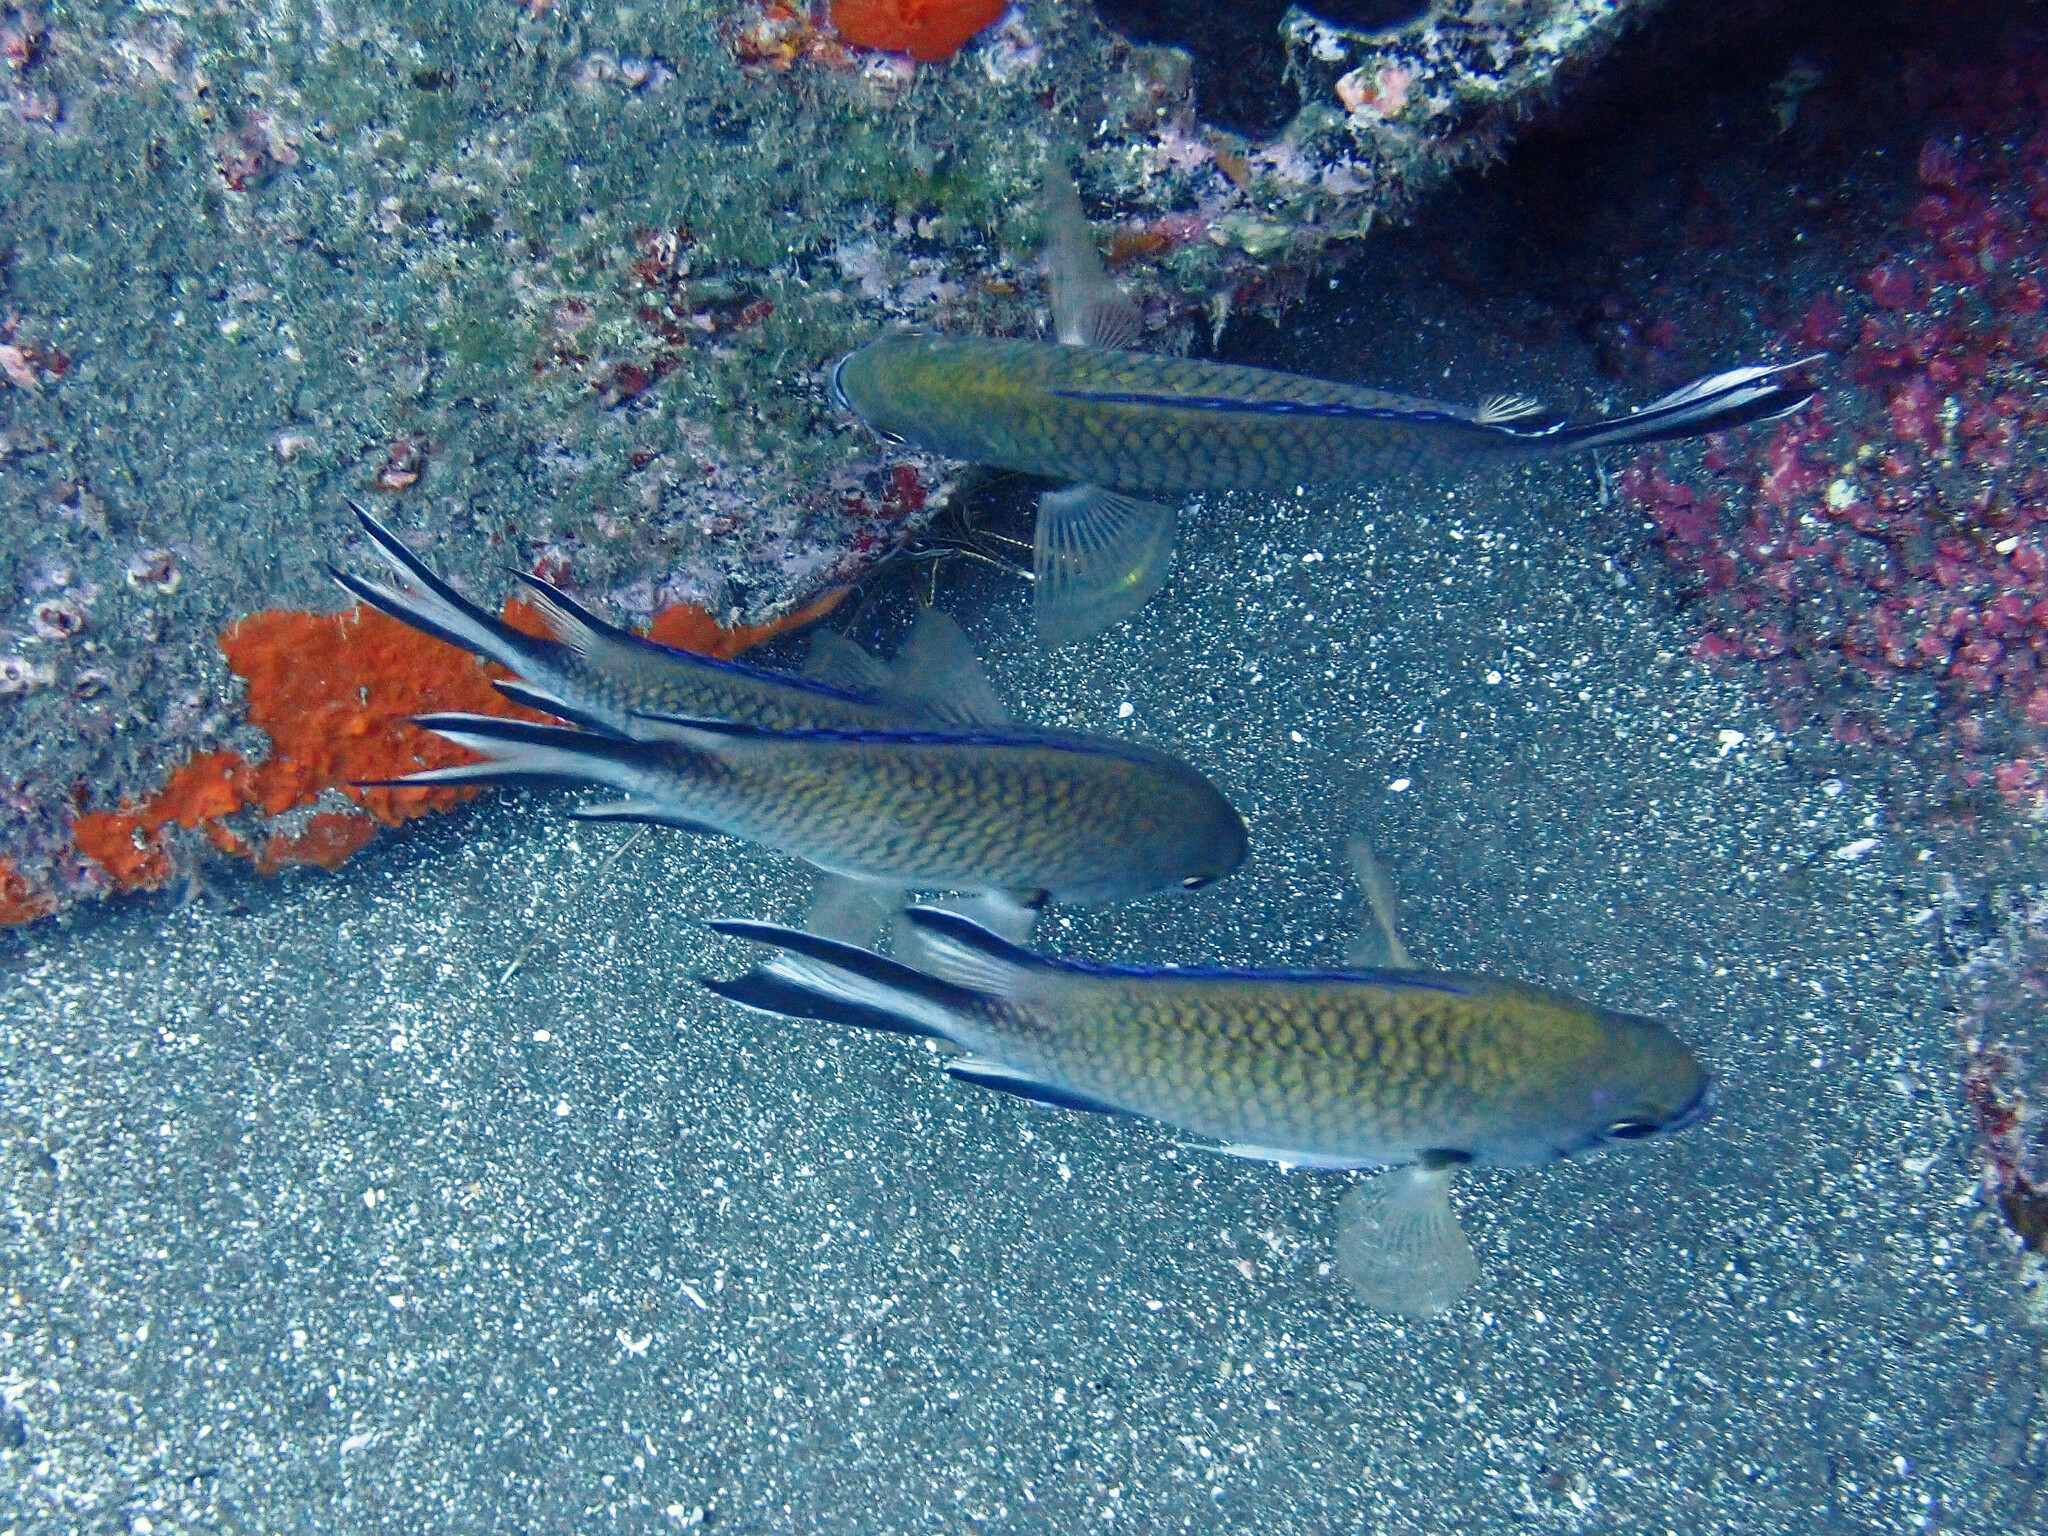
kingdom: Animalia
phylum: Chordata
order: Perciformes
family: Pomacentridae
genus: Chromis
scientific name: Chromis limbata
